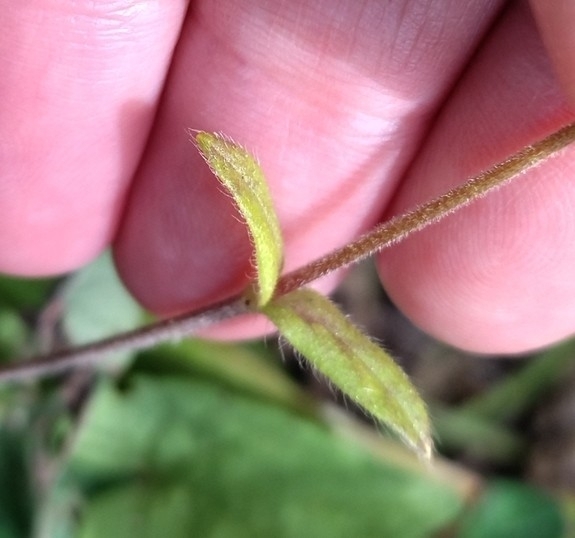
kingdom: Plantae
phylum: Tracheophyta
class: Magnoliopsida
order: Caryophyllales
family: Caryophyllaceae
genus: Cerastium
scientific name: Cerastium holosteoides
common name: Big chickweed
